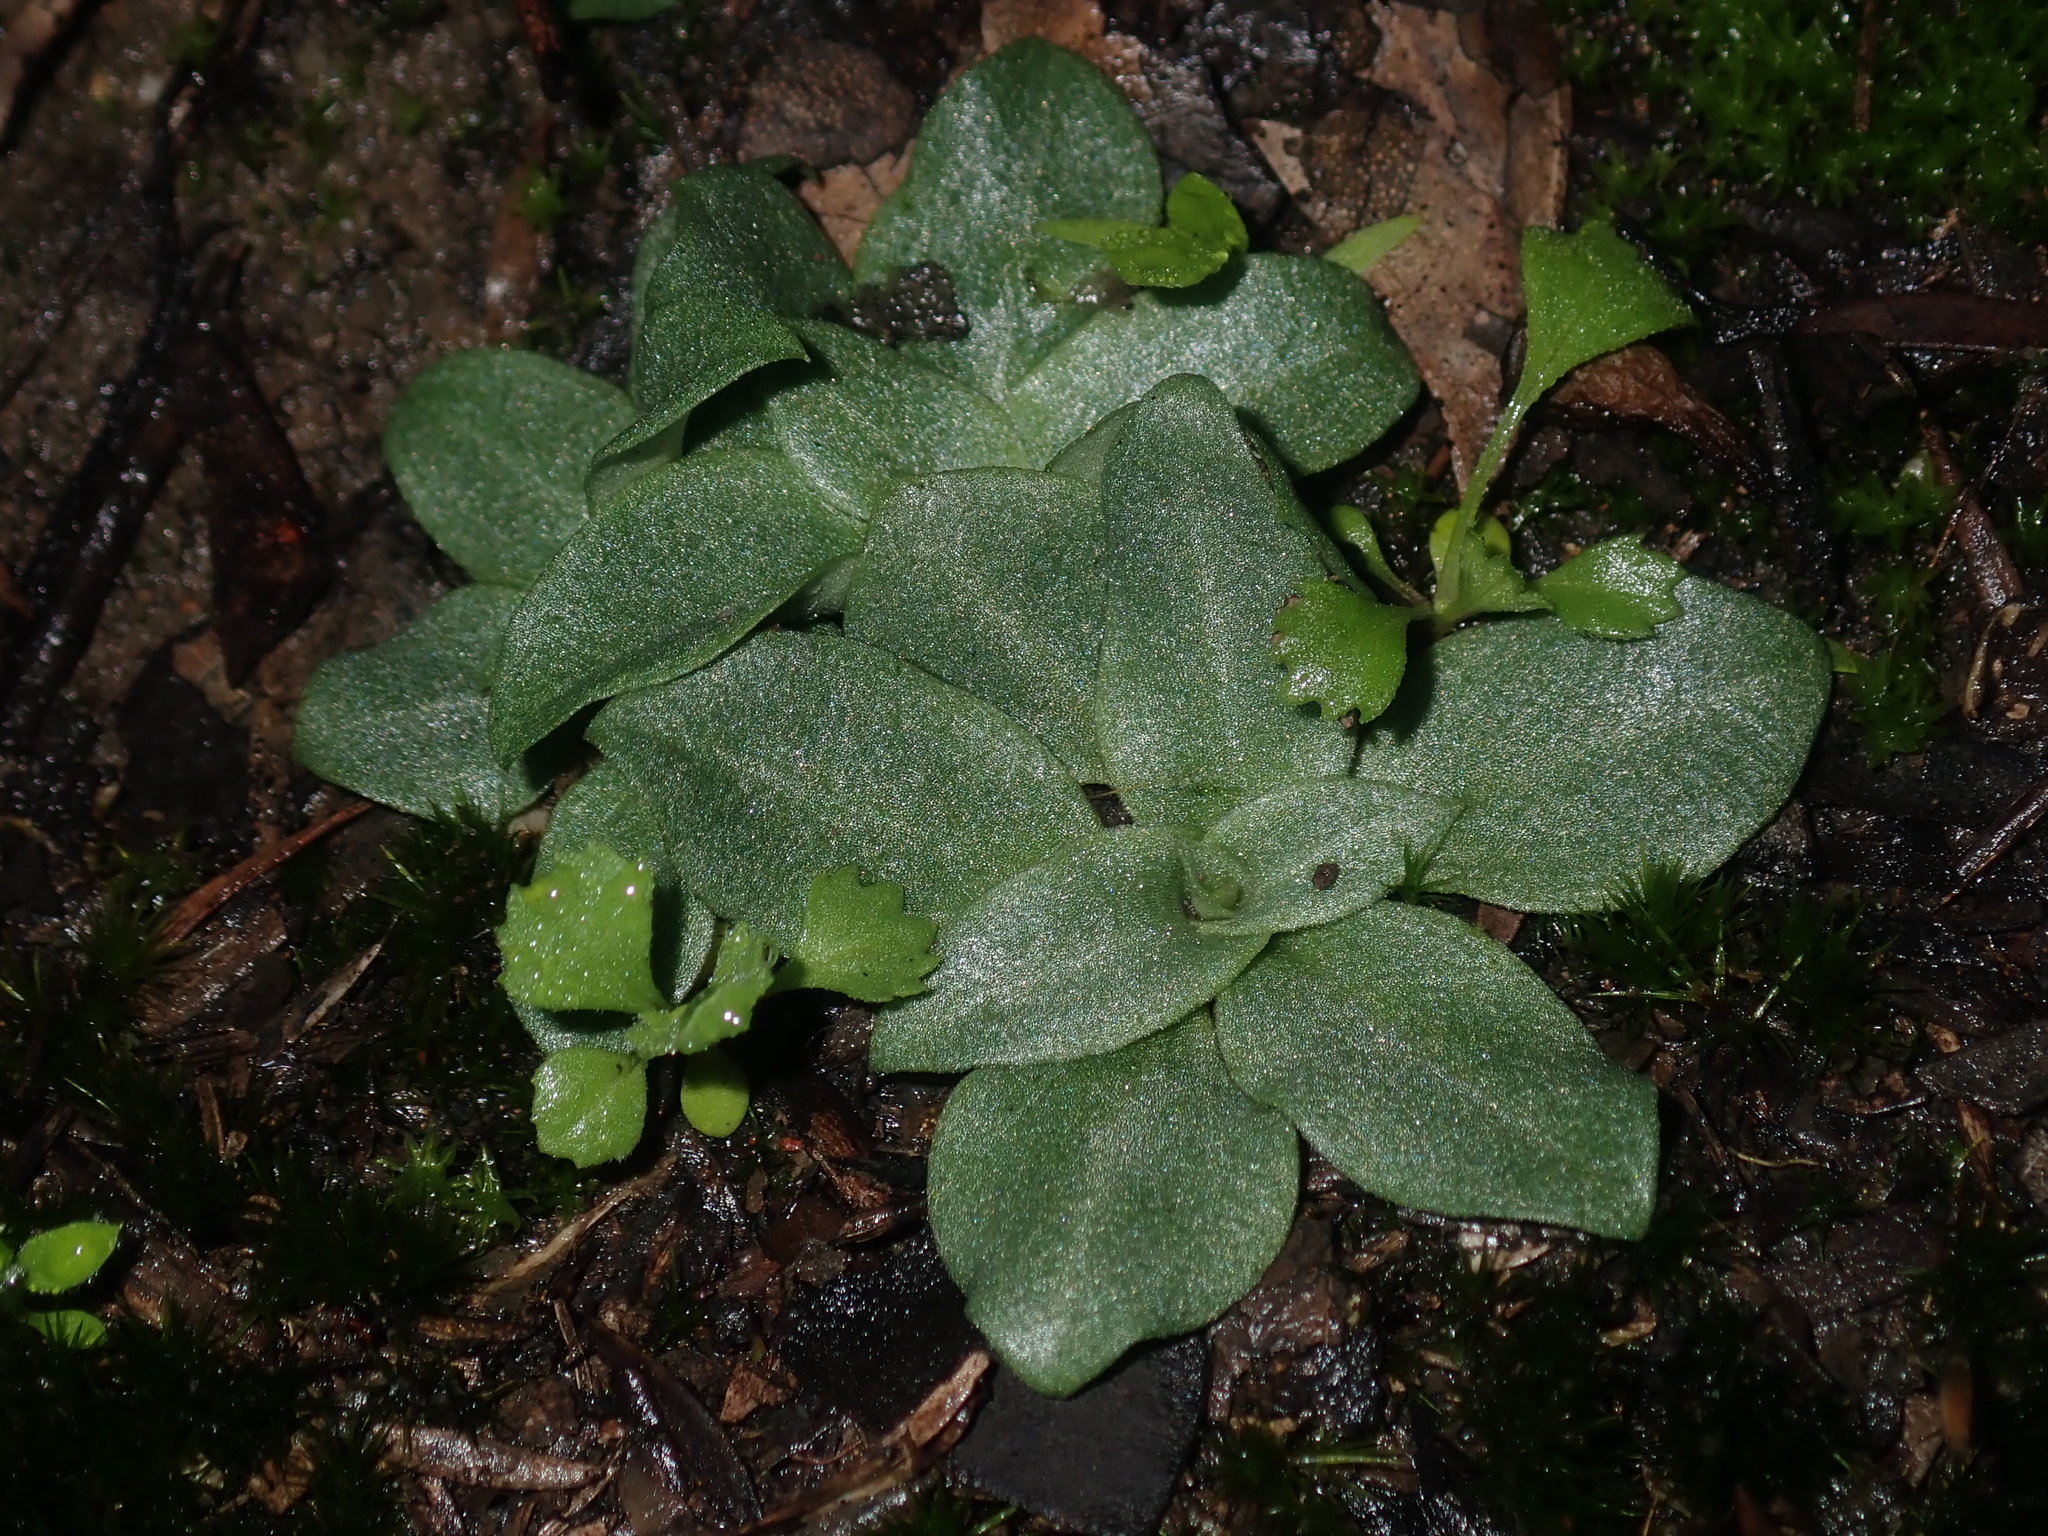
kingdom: Plantae
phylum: Tracheophyta
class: Liliopsida
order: Asparagales
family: Orchidaceae
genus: Pterostylis
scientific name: Pterostylis rufa
